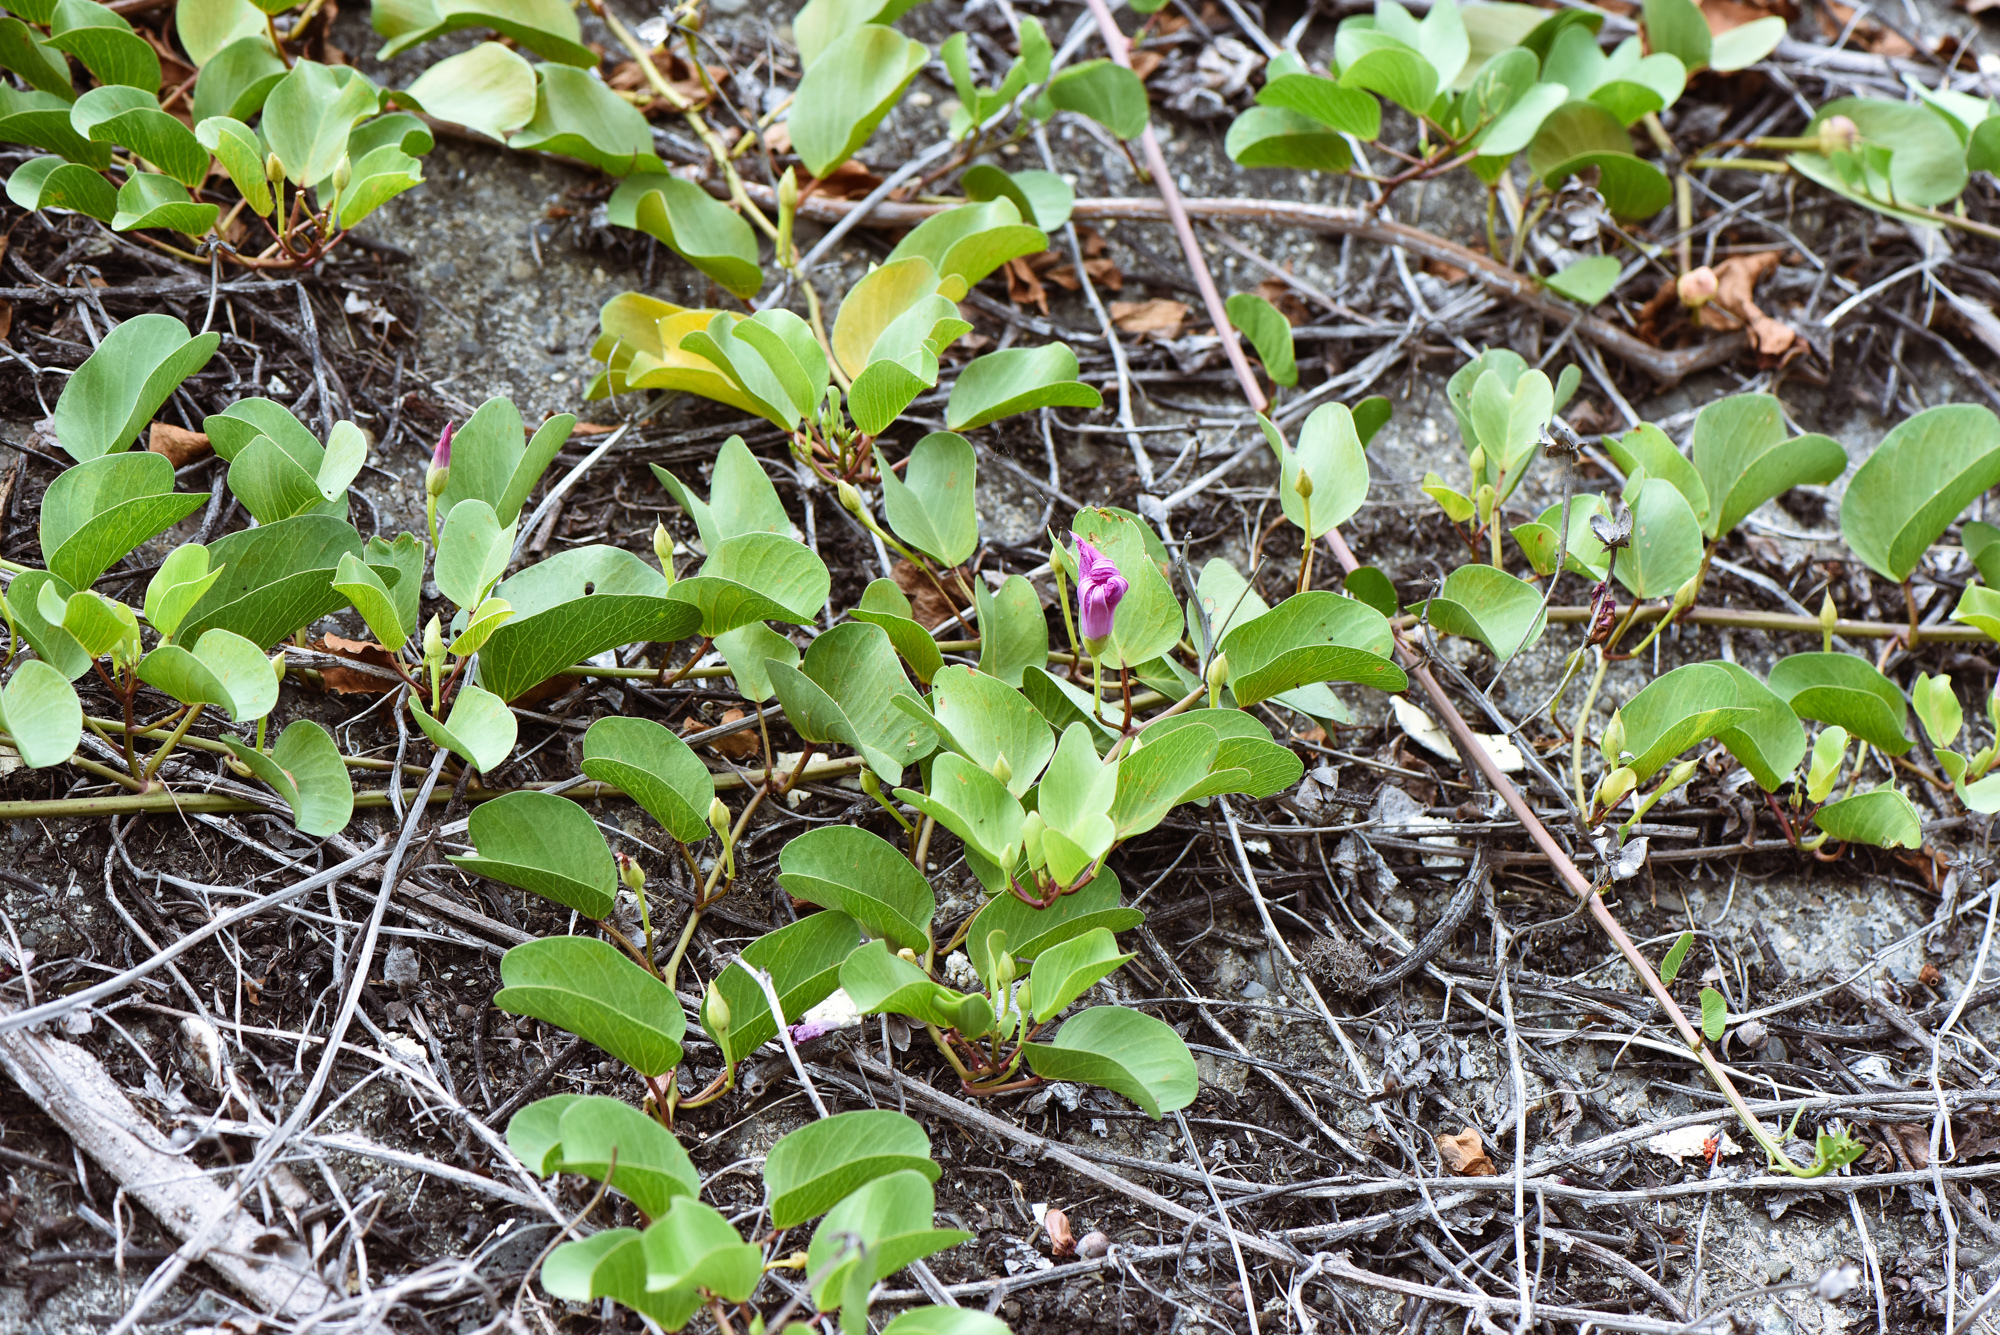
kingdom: Plantae
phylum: Tracheophyta
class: Magnoliopsida
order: Solanales
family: Convolvulaceae
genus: Ipomoea
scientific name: Ipomoea pes-caprae
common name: Beach morning glory
